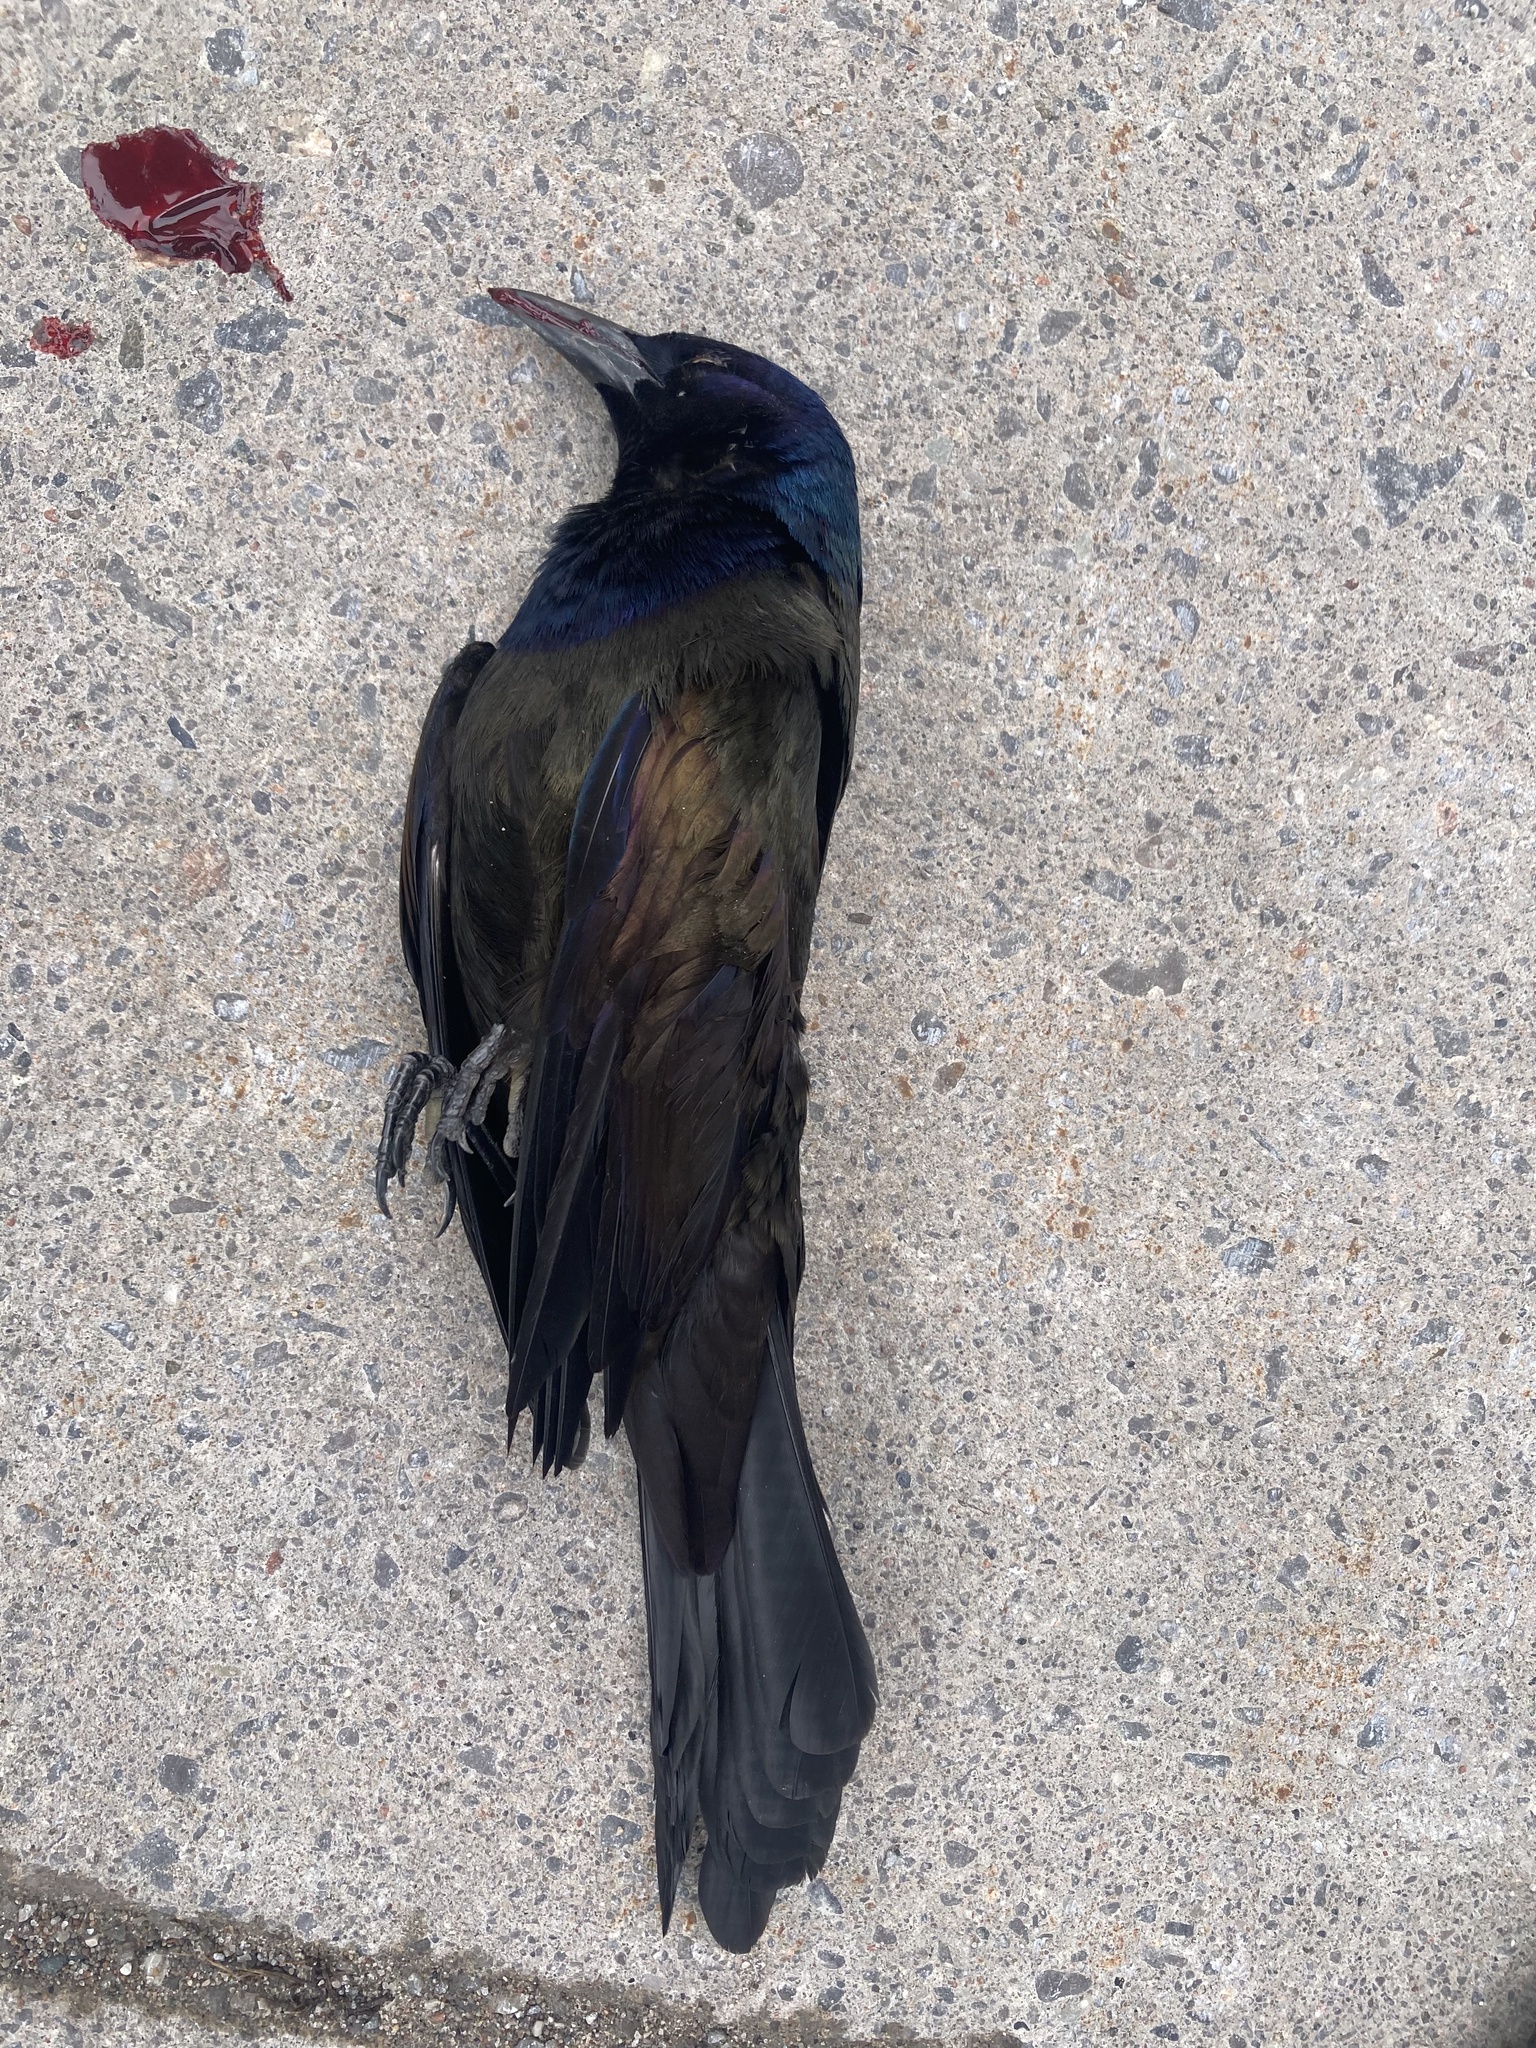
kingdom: Animalia
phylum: Chordata
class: Aves
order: Passeriformes
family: Icteridae
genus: Quiscalus
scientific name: Quiscalus quiscula
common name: Common grackle
